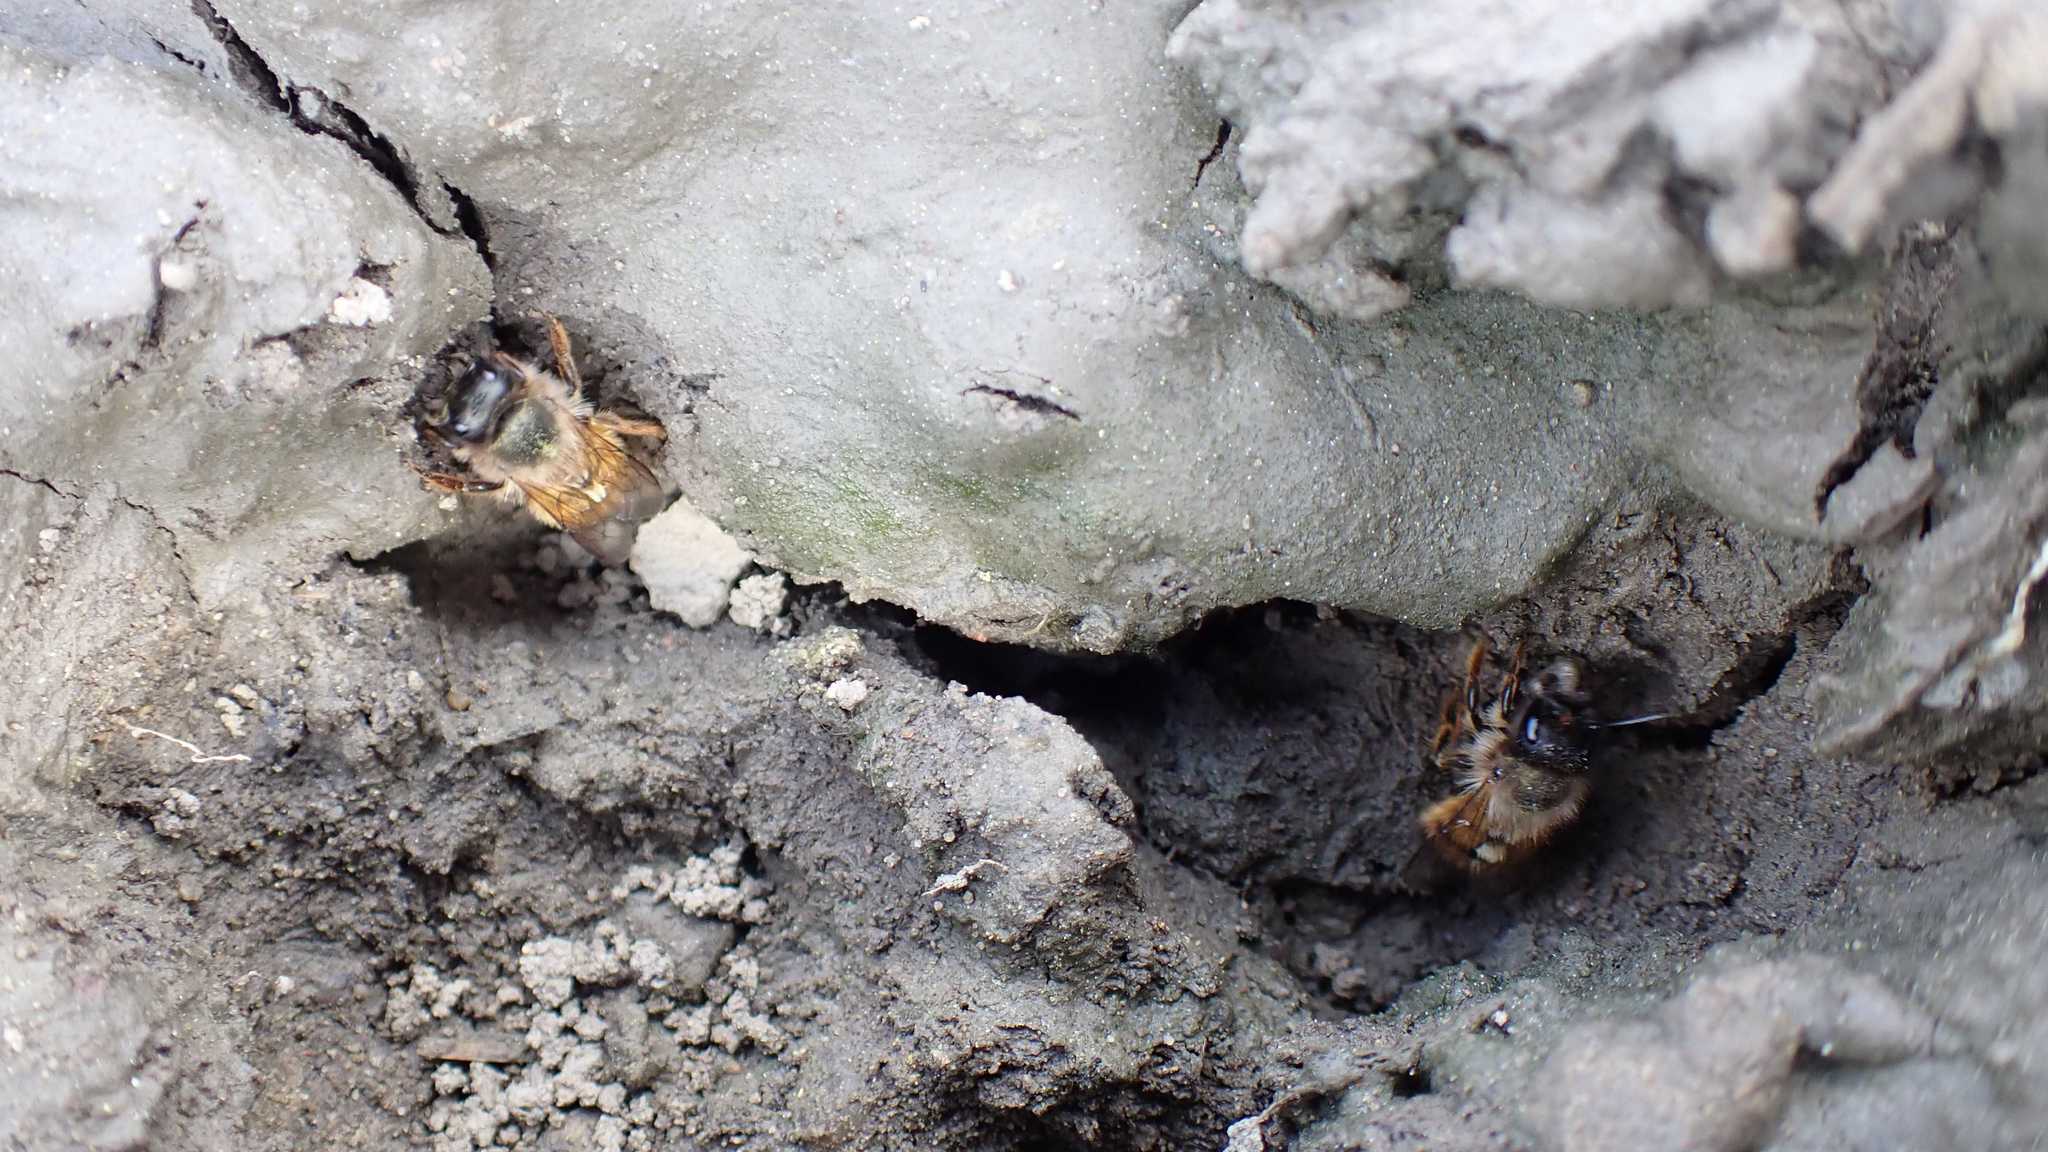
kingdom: Animalia
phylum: Arthropoda
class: Insecta
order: Hymenoptera
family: Megachilidae
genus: Osmia
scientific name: Osmia bicornis
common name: Red mason bee
